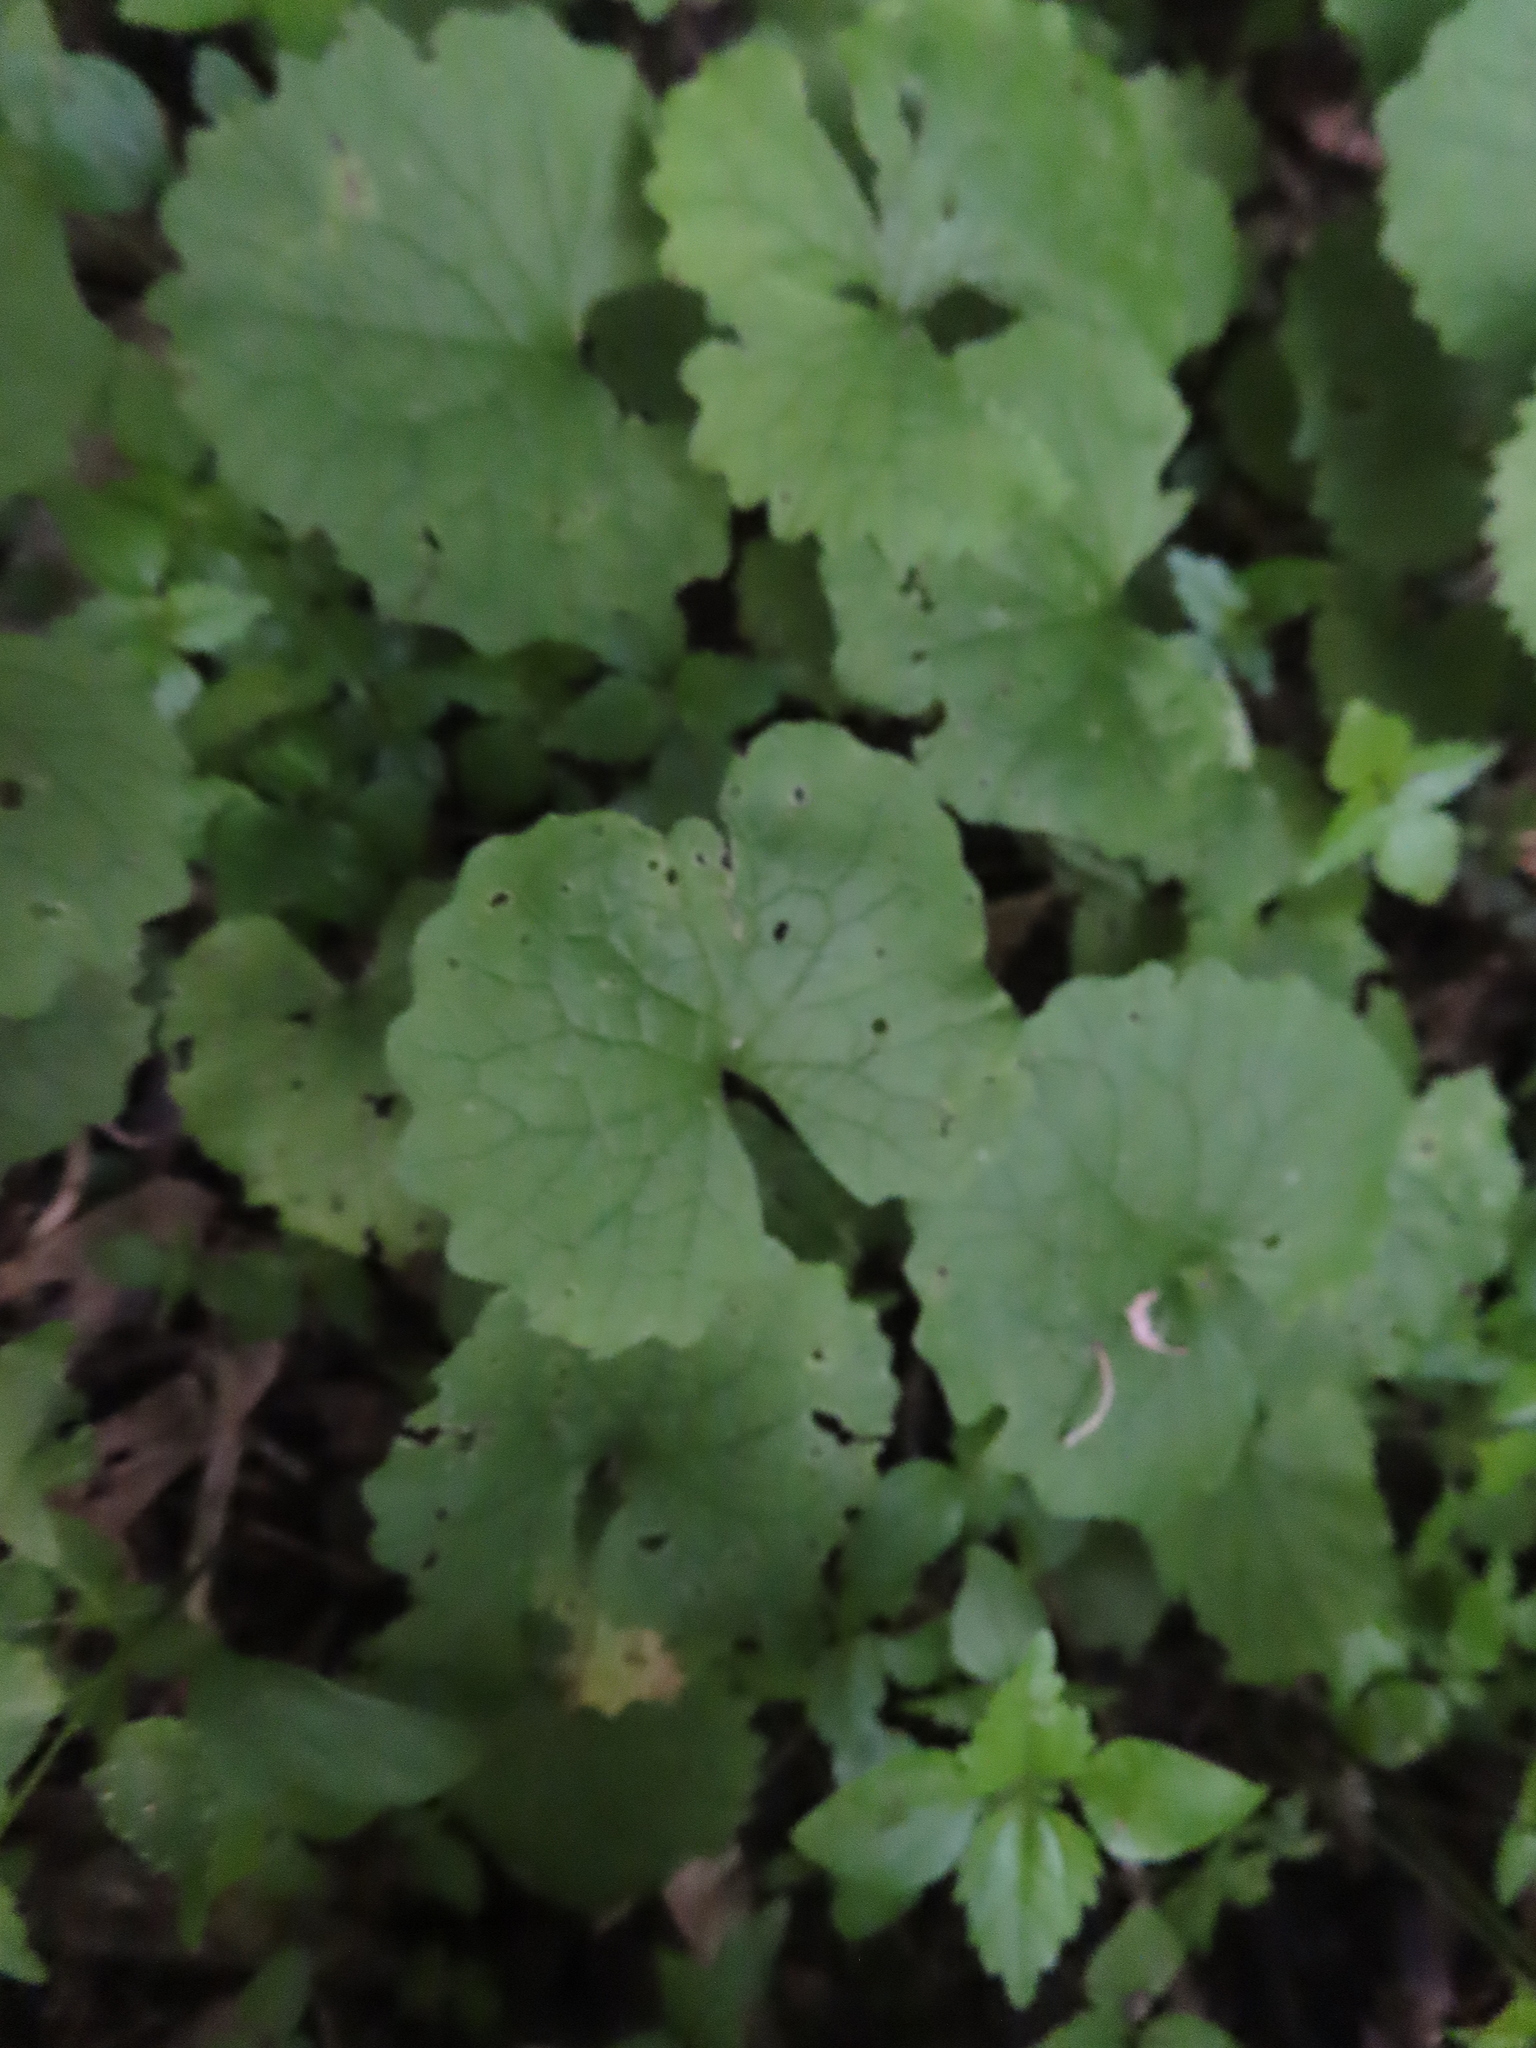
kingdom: Plantae
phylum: Tracheophyta
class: Magnoliopsida
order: Brassicales
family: Brassicaceae
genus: Alliaria
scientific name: Alliaria petiolata
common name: Garlic mustard
